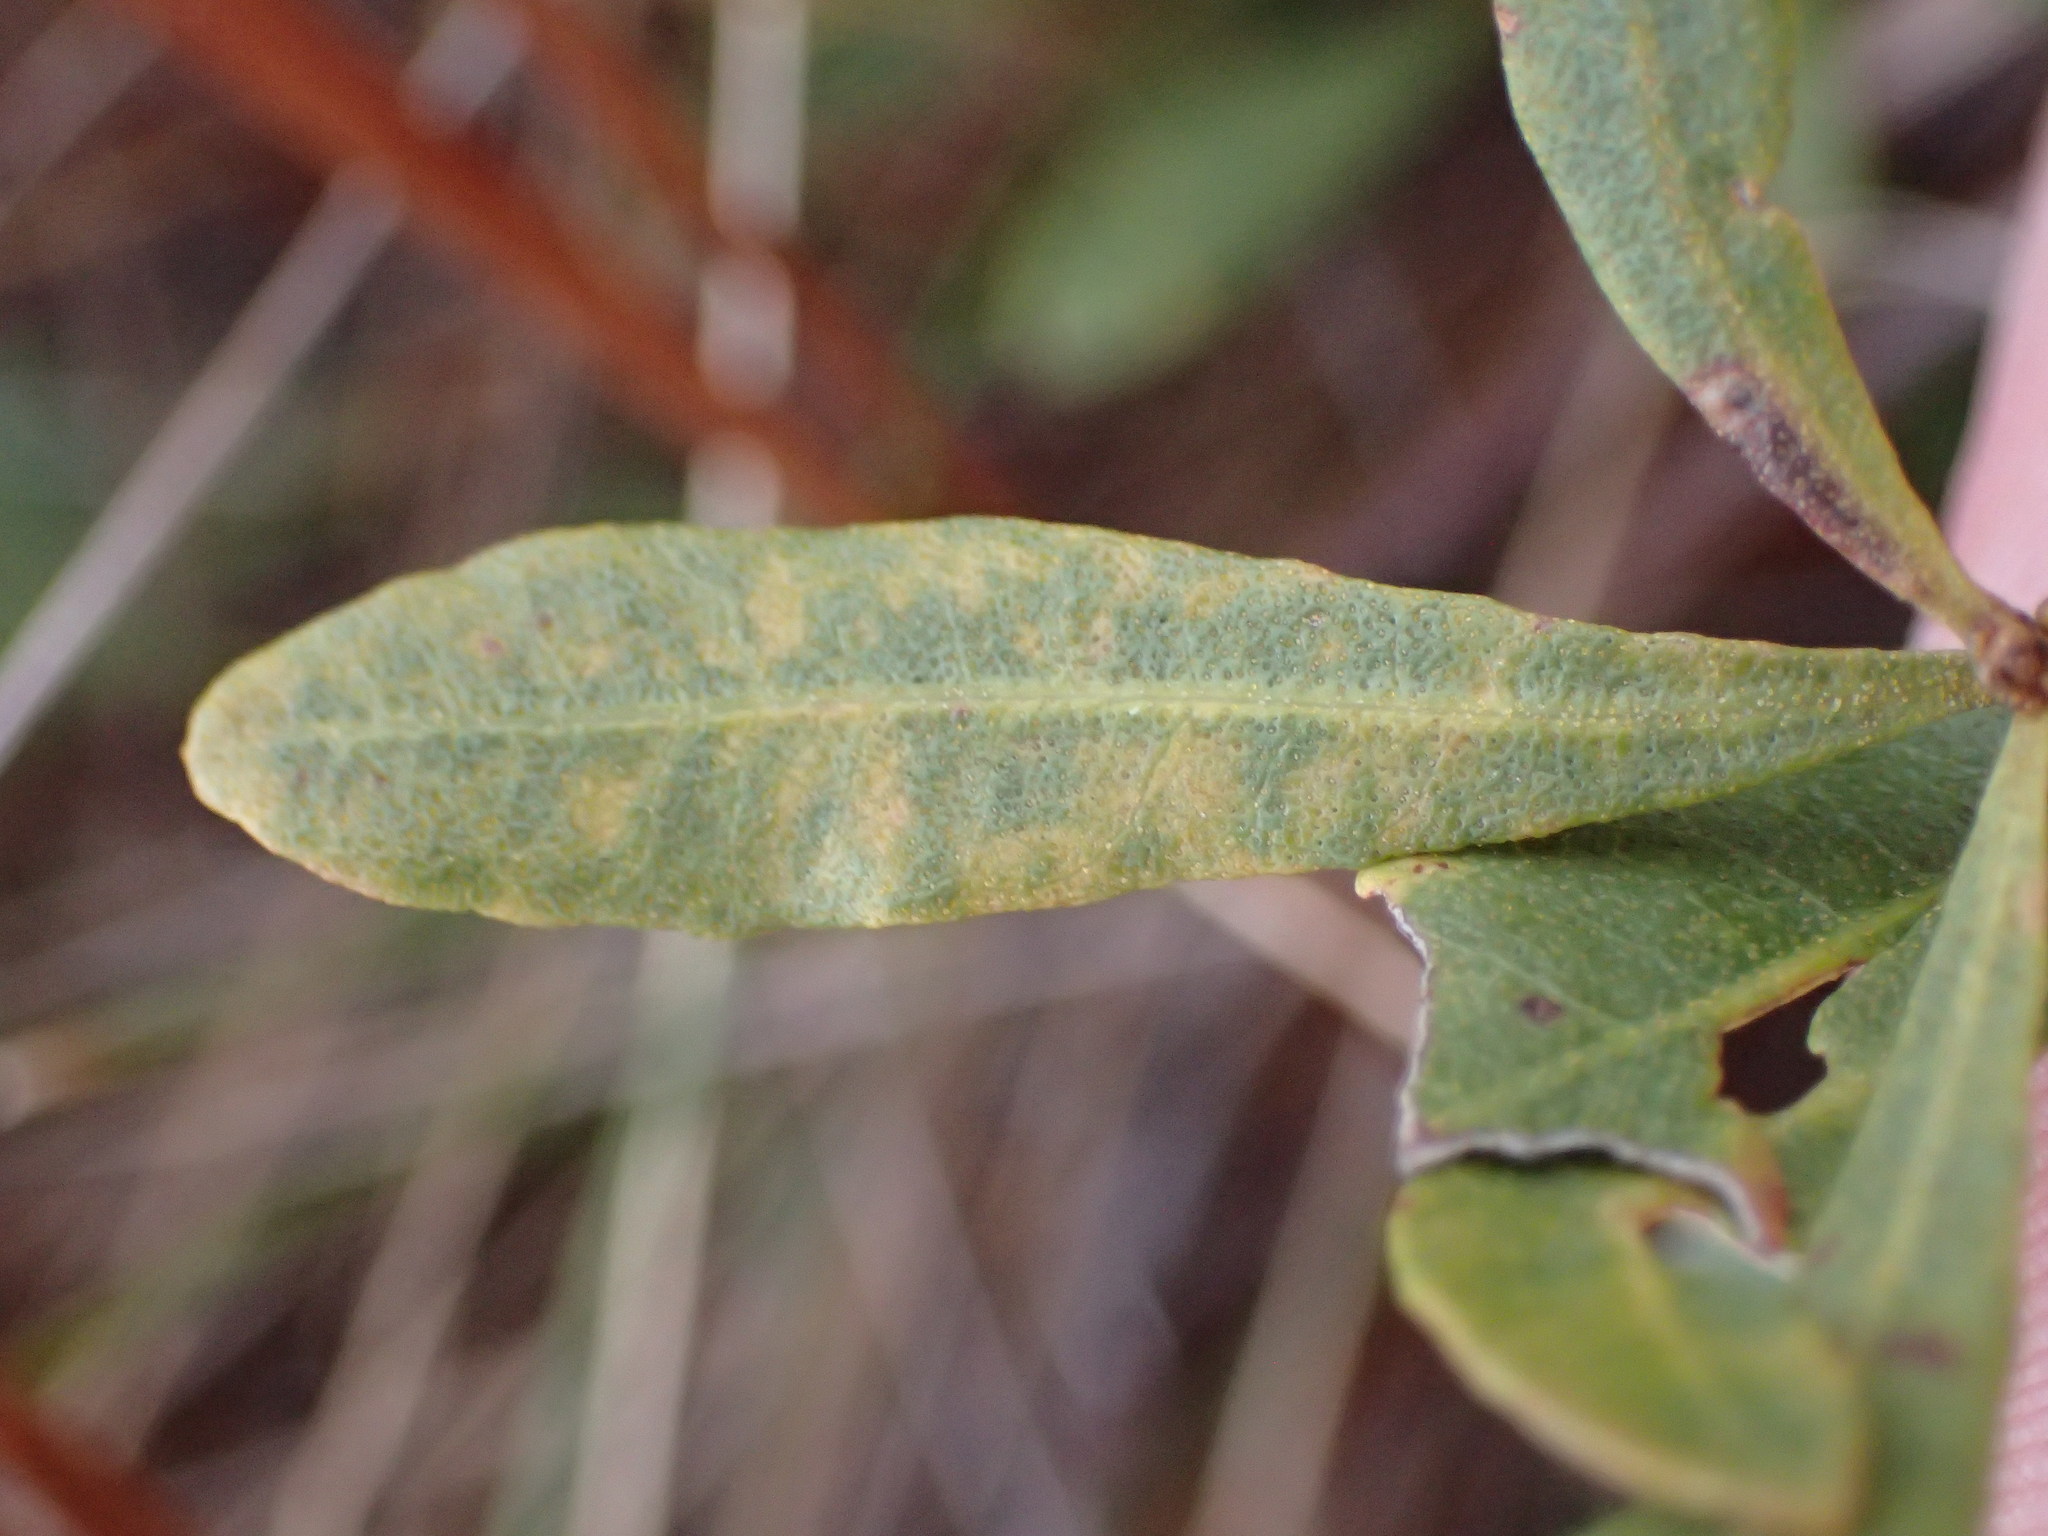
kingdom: Plantae
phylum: Tracheophyta
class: Magnoliopsida
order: Fagales
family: Myricaceae
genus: Morella
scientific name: Morella cerifera
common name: Wax myrtle
